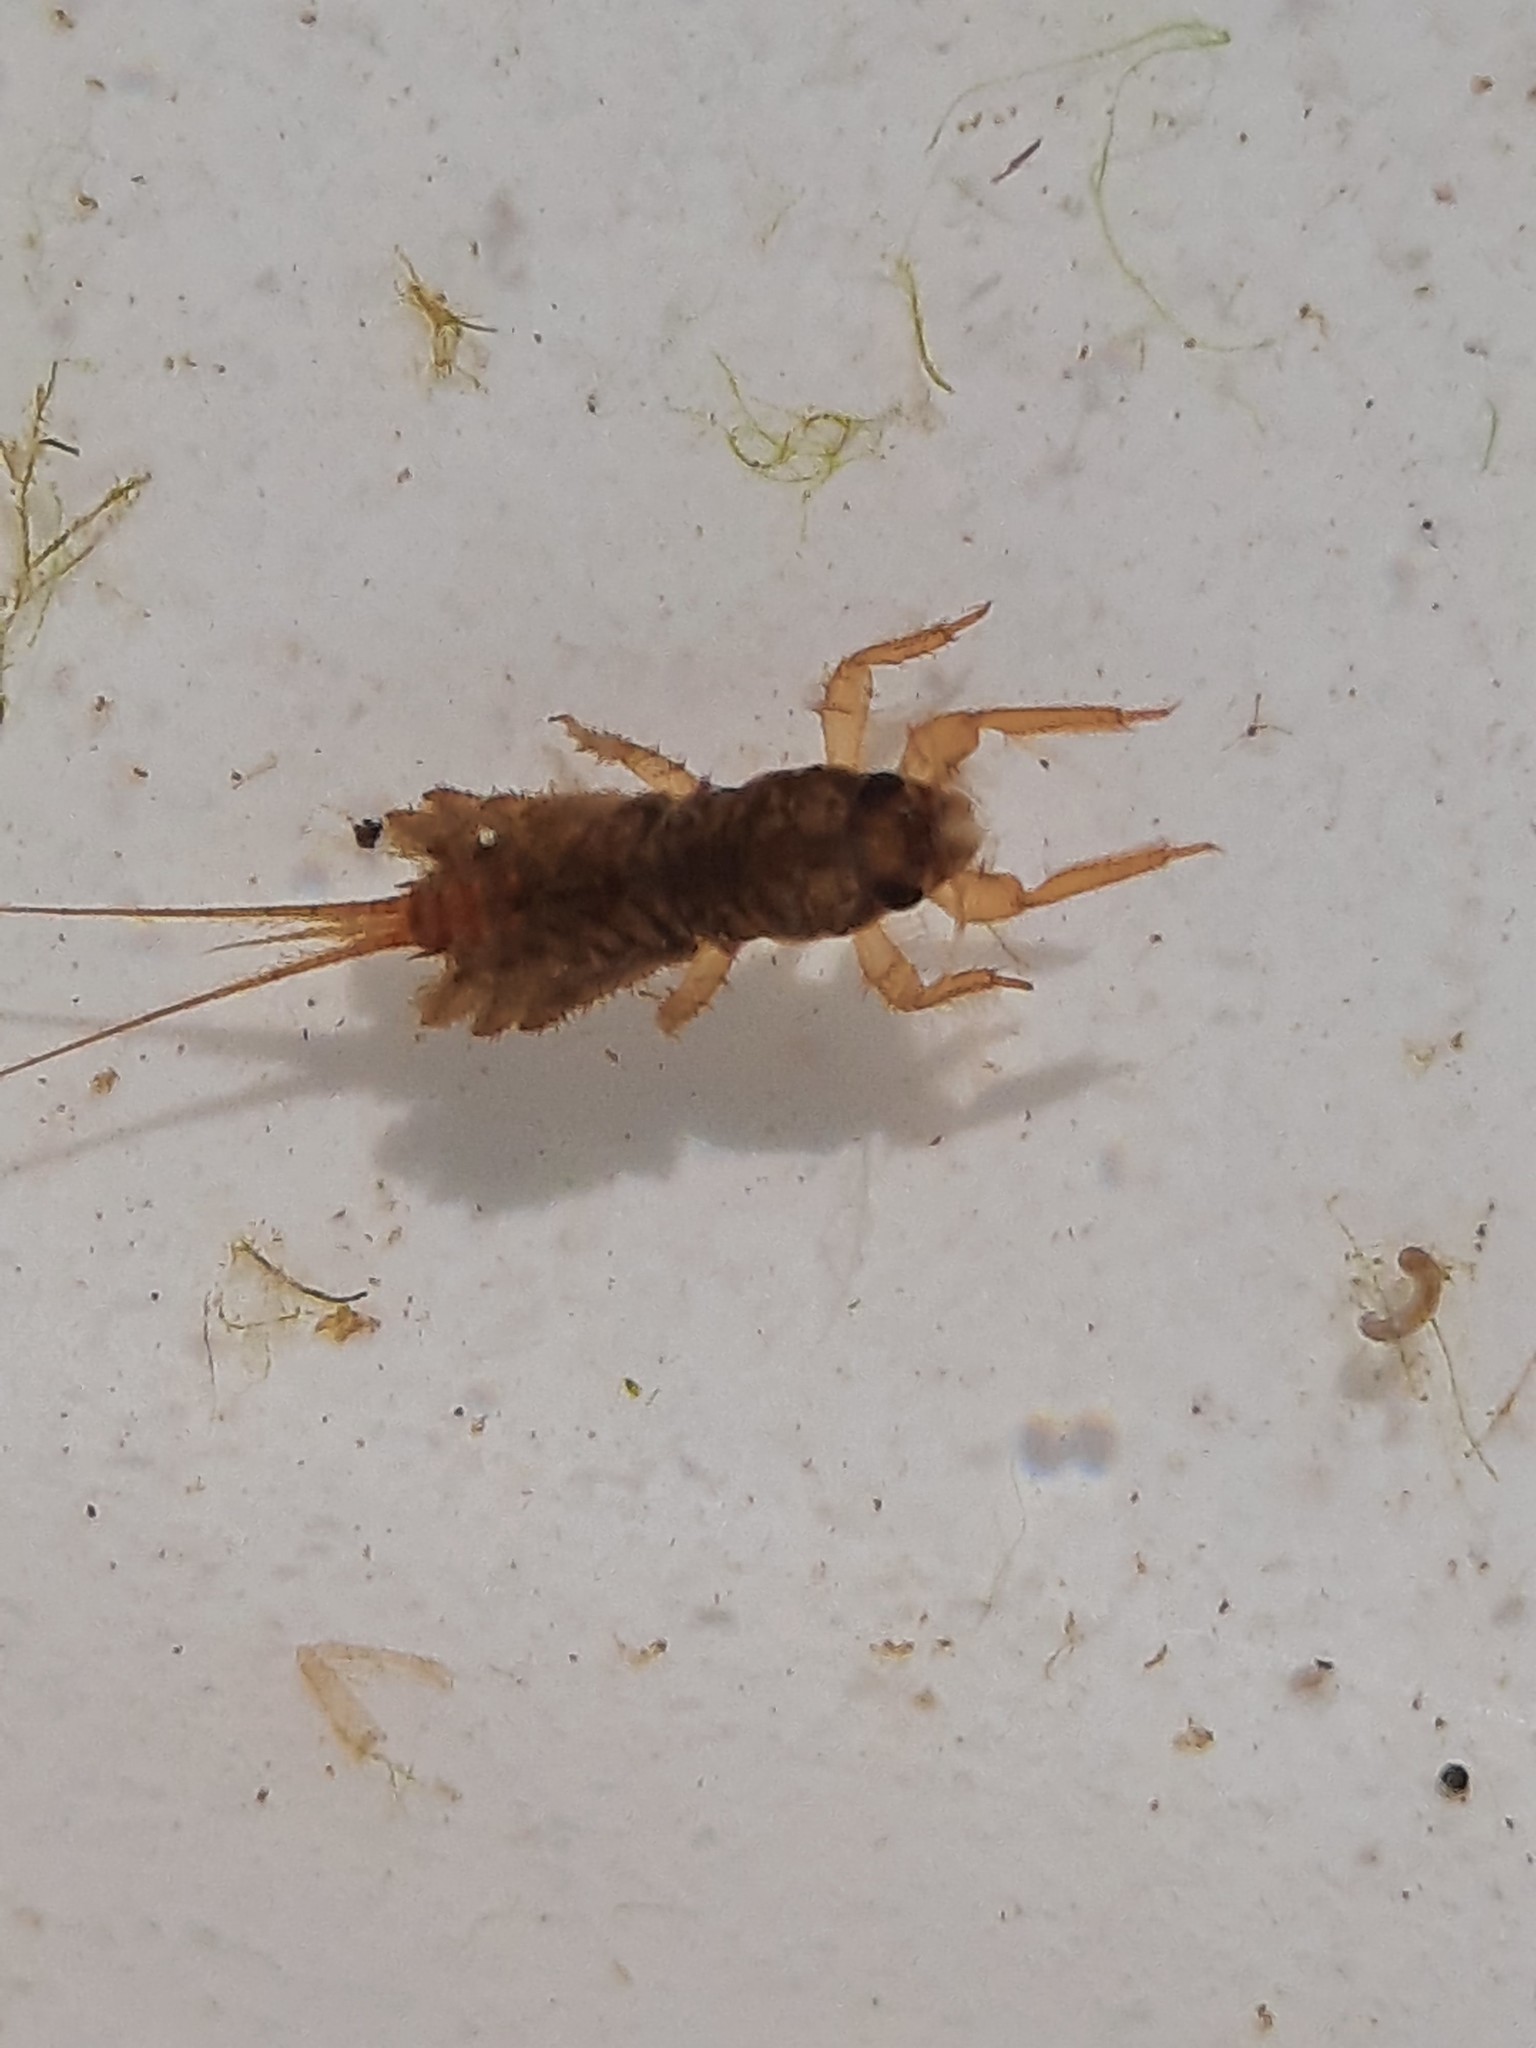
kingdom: Animalia
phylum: Arthropoda
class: Insecta
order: Ephemeroptera
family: Coloburiscidae
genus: Coloburiscus
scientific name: Coloburiscus humeralis
